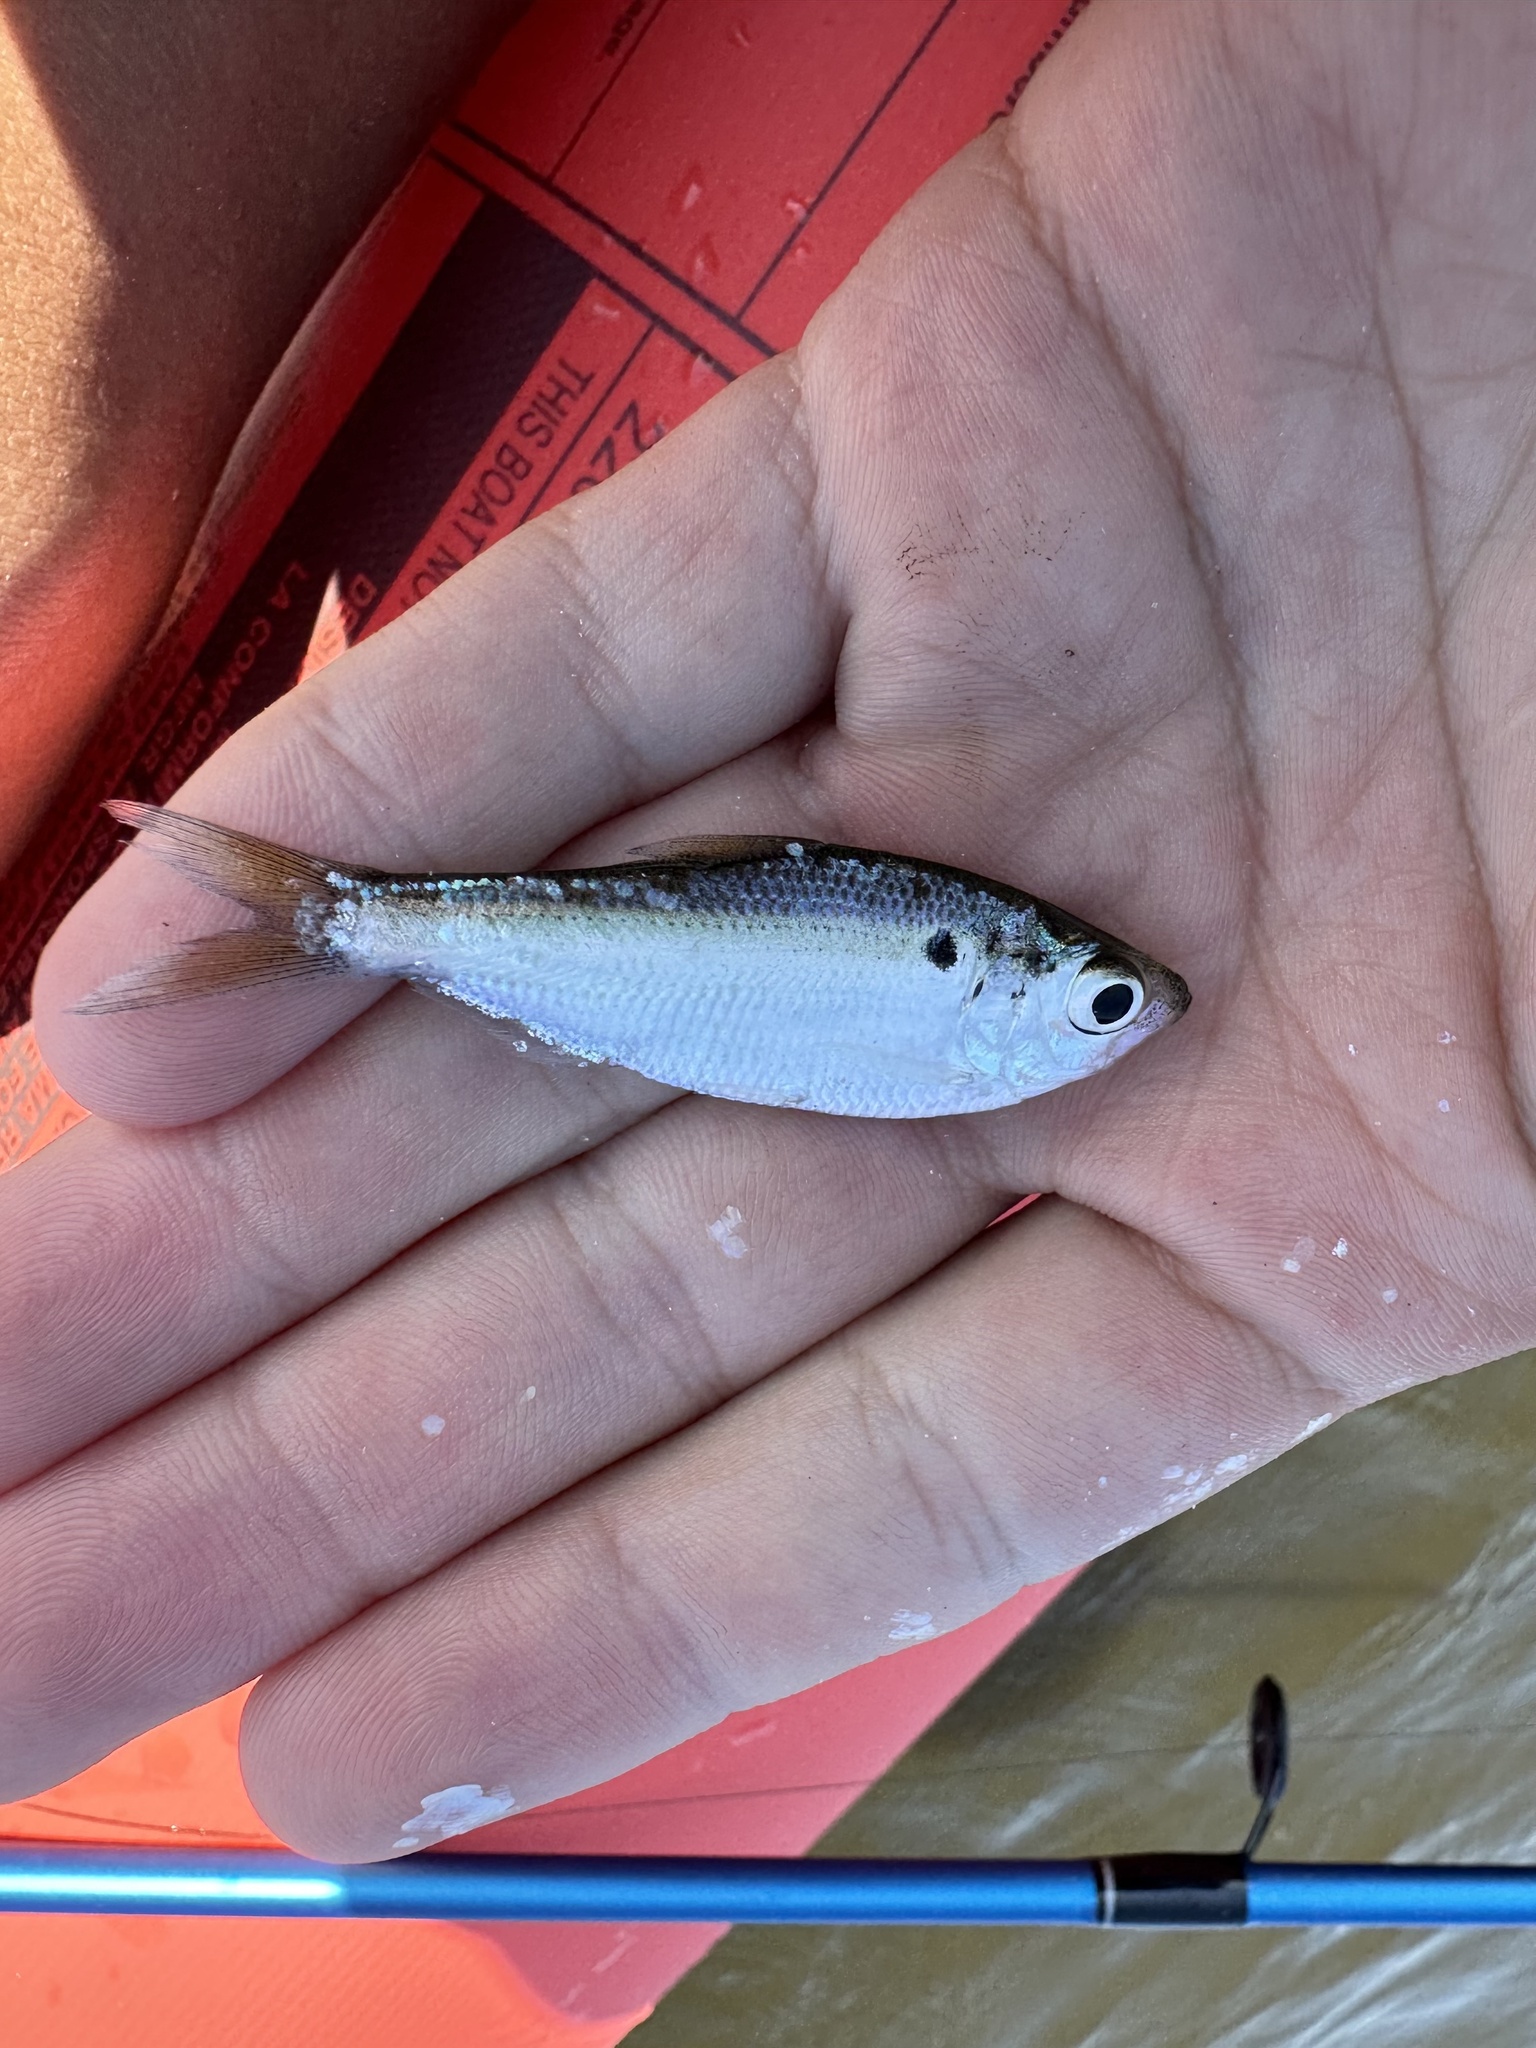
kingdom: Animalia
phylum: Chordata
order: Clupeiformes
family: Clupeidae
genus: Dorosoma
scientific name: Dorosoma petenense
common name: Threadfin shad
